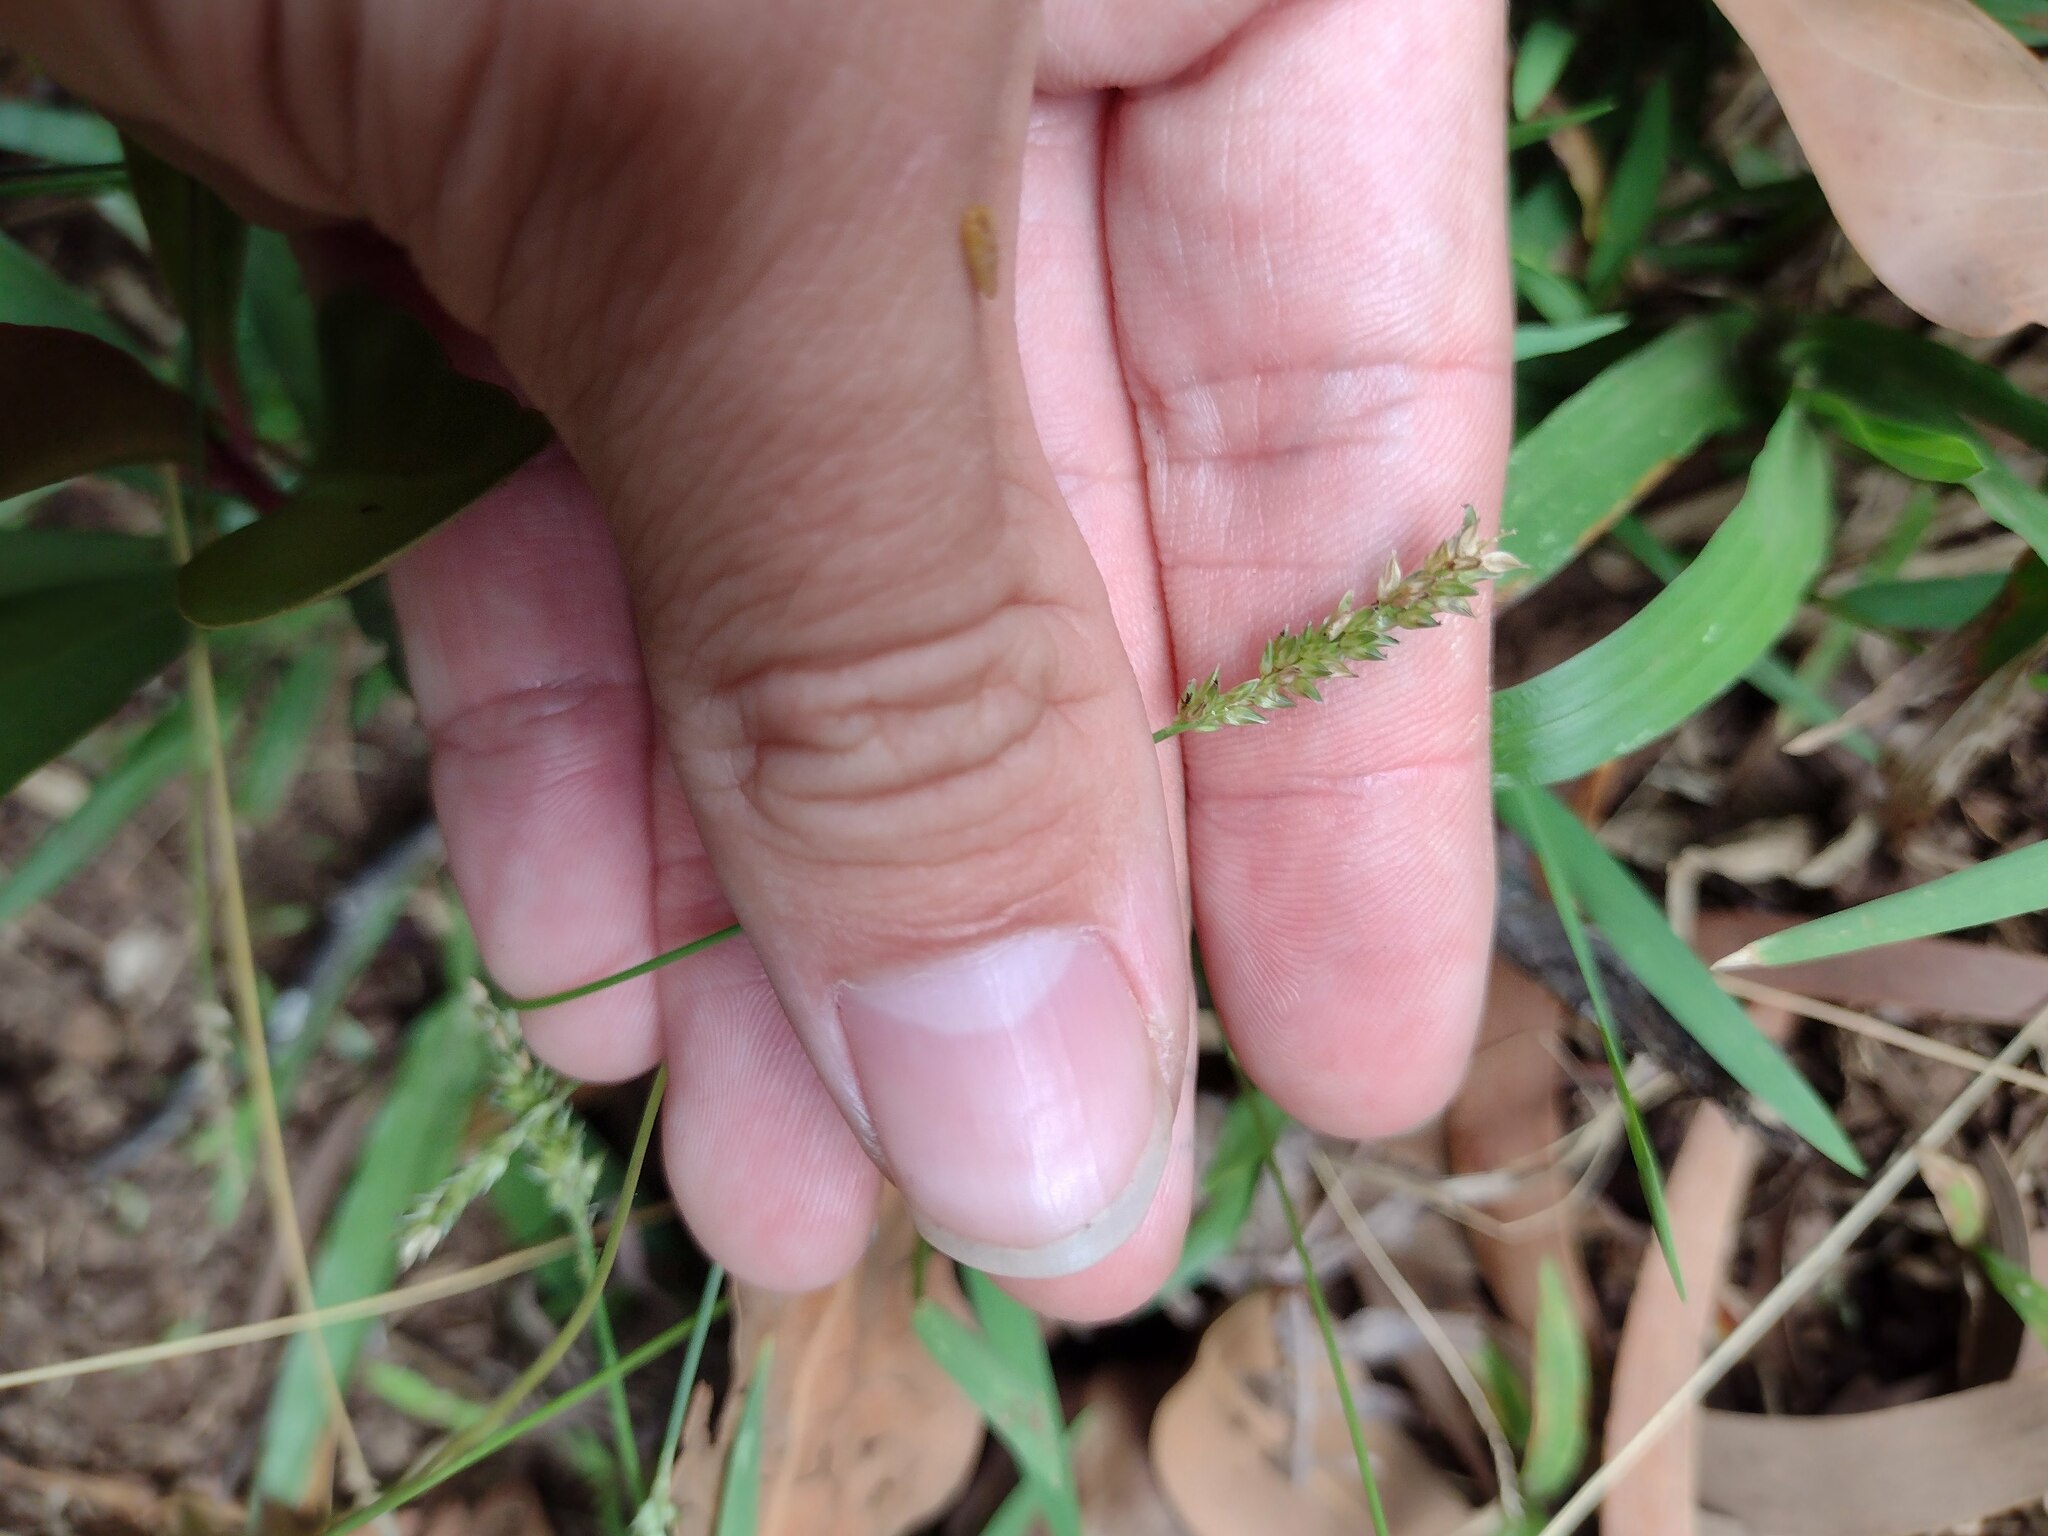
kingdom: Plantae
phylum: Tracheophyta
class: Liliopsida
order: Poales
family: Poaceae
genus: Sacciolepis
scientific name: Sacciolepis indica
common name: Glenwoodgrass
